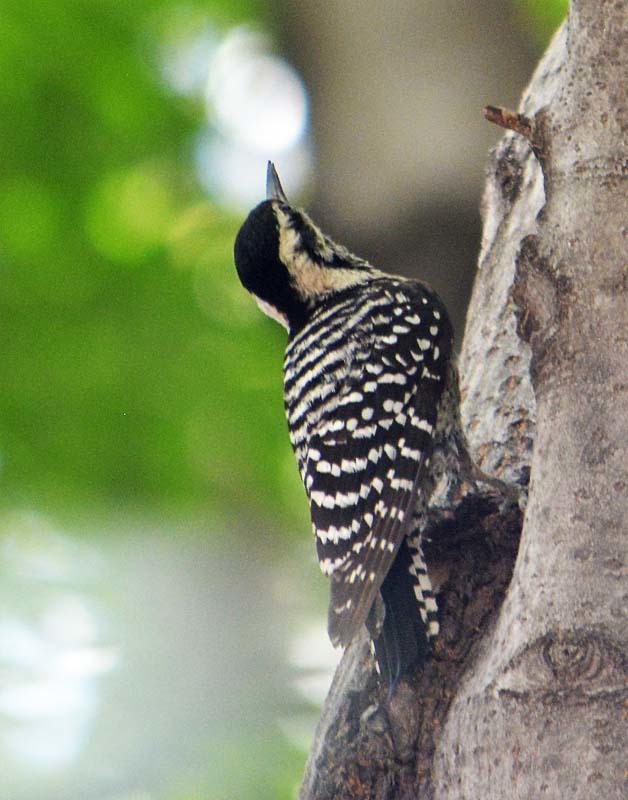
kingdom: Animalia
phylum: Chordata
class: Aves
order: Piciformes
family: Picidae
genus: Dryobates
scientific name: Dryobates scalaris
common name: Ladder-backed woodpecker
